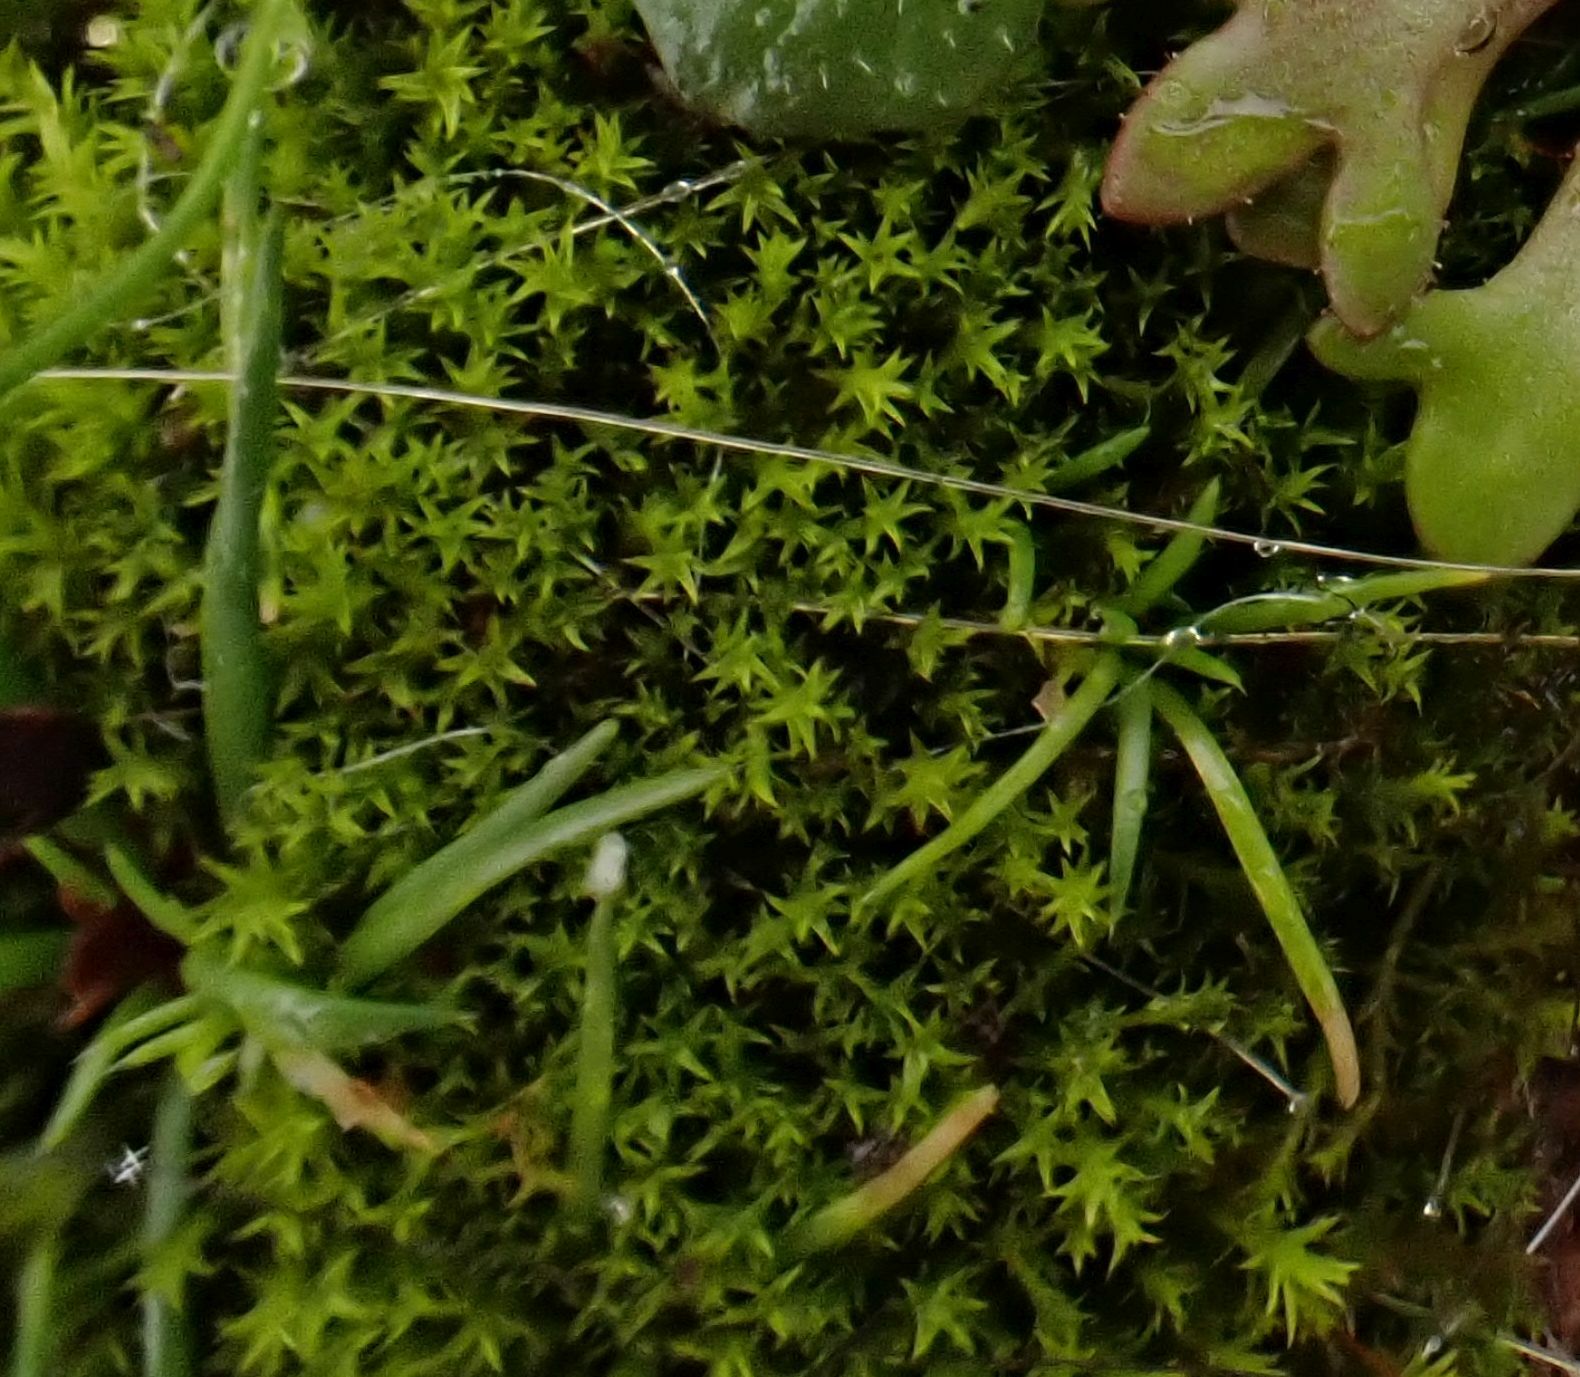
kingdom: Plantae
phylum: Bryophyta
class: Bryopsida
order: Pottiales
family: Pottiaceae
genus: Pseudocrossidium
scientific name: Pseudocrossidium hornschuchianum
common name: Hornschuch's beard-moss
